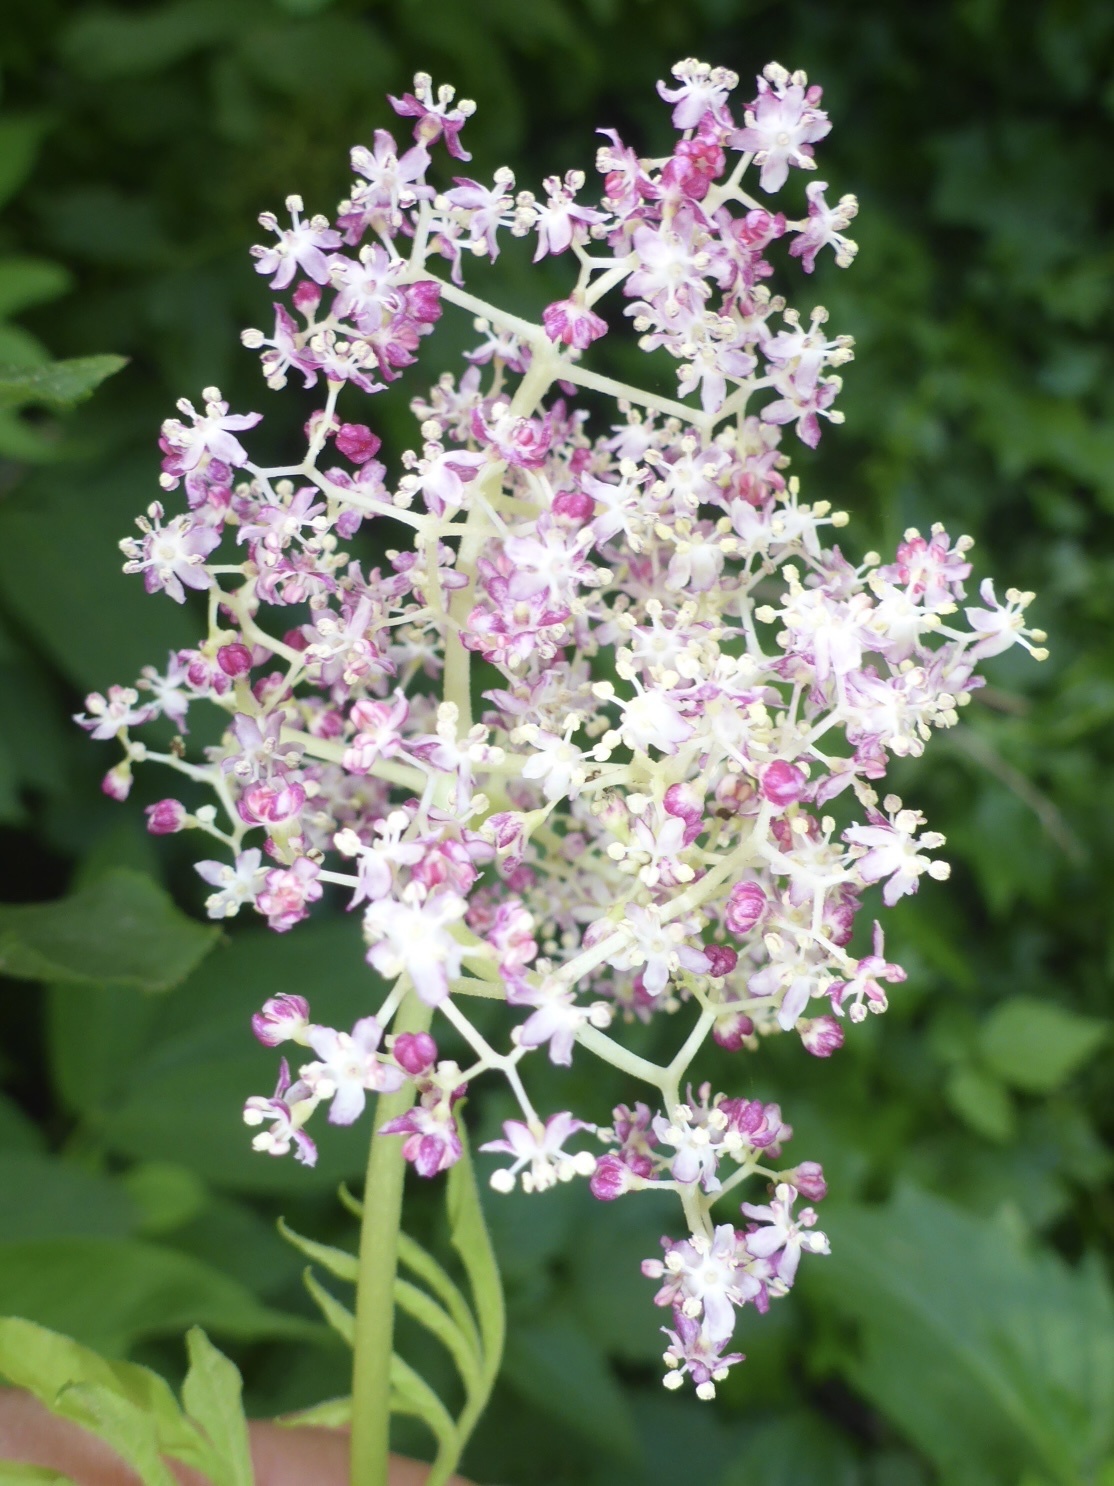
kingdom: Plantae
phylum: Tracheophyta
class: Magnoliopsida
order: Dipsacales
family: Viburnaceae
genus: Sambucus
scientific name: Sambucus racemosa
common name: Red-berried elder
